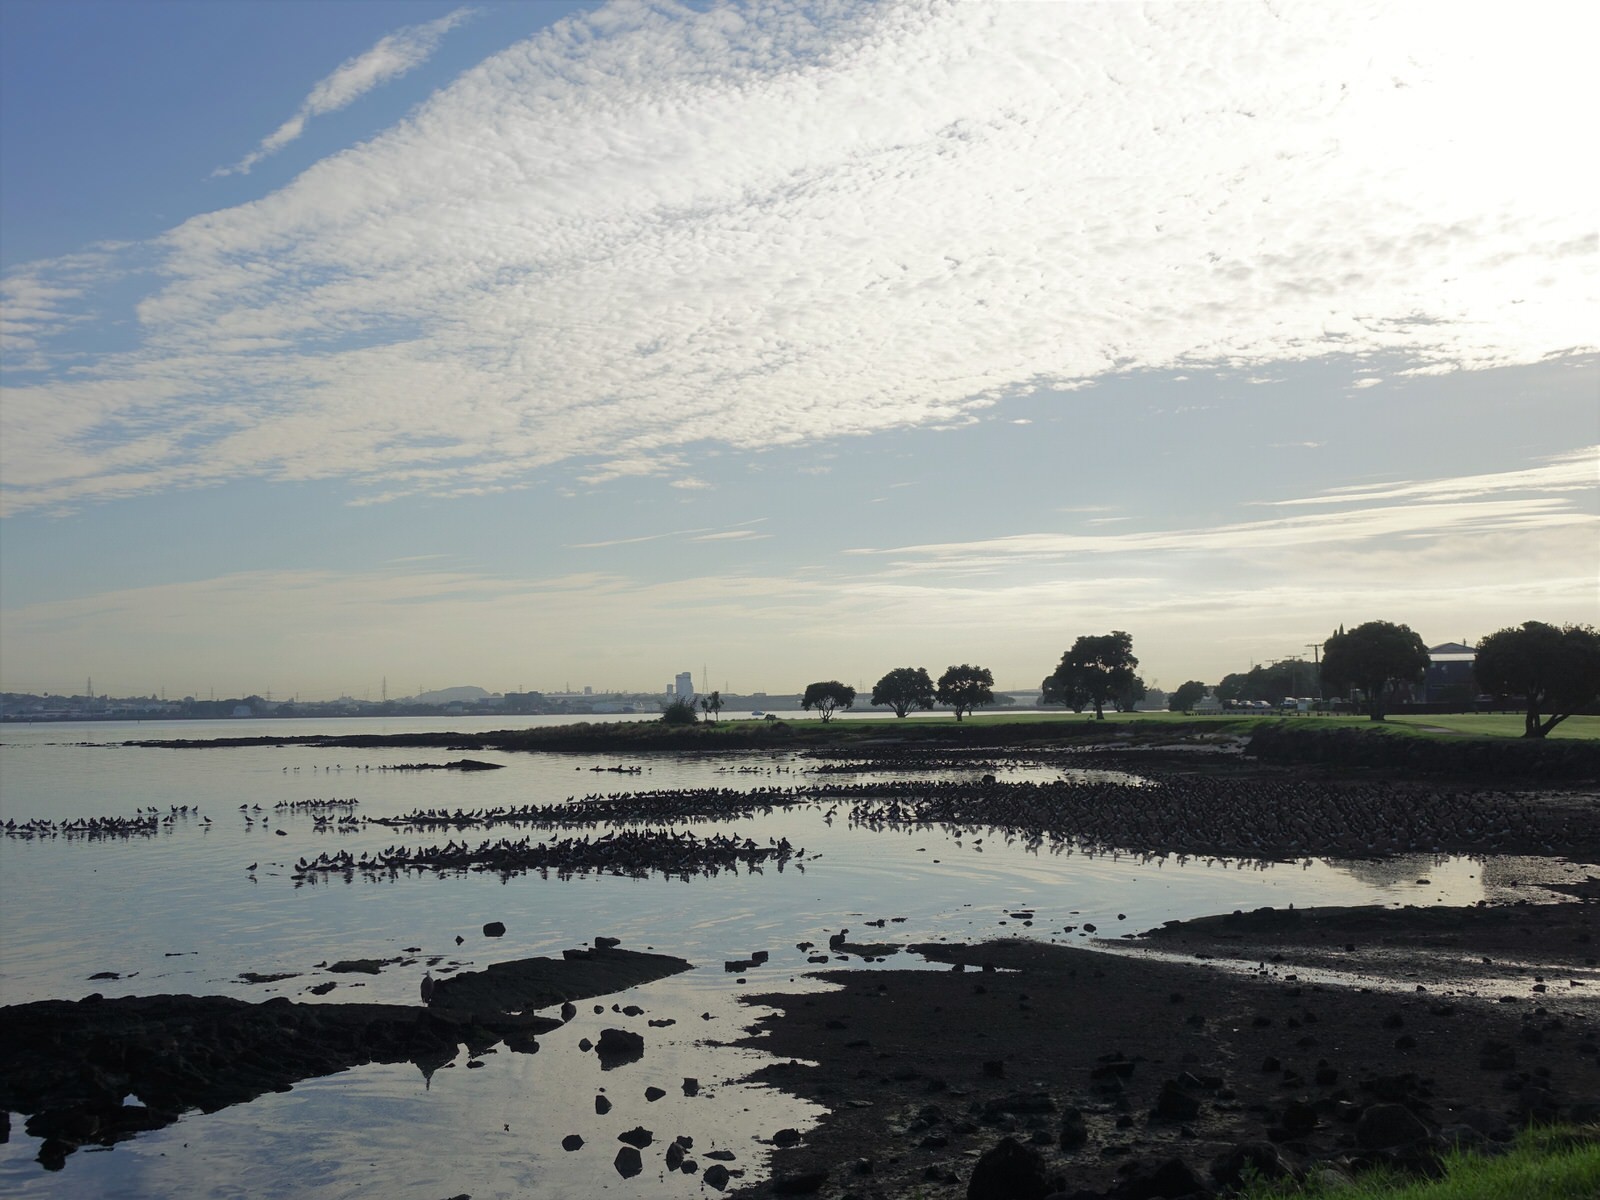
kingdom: Animalia
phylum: Chordata
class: Aves
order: Charadriiformes
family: Haematopodidae
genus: Haematopus
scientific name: Haematopus finschi
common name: South island oystercatcher
